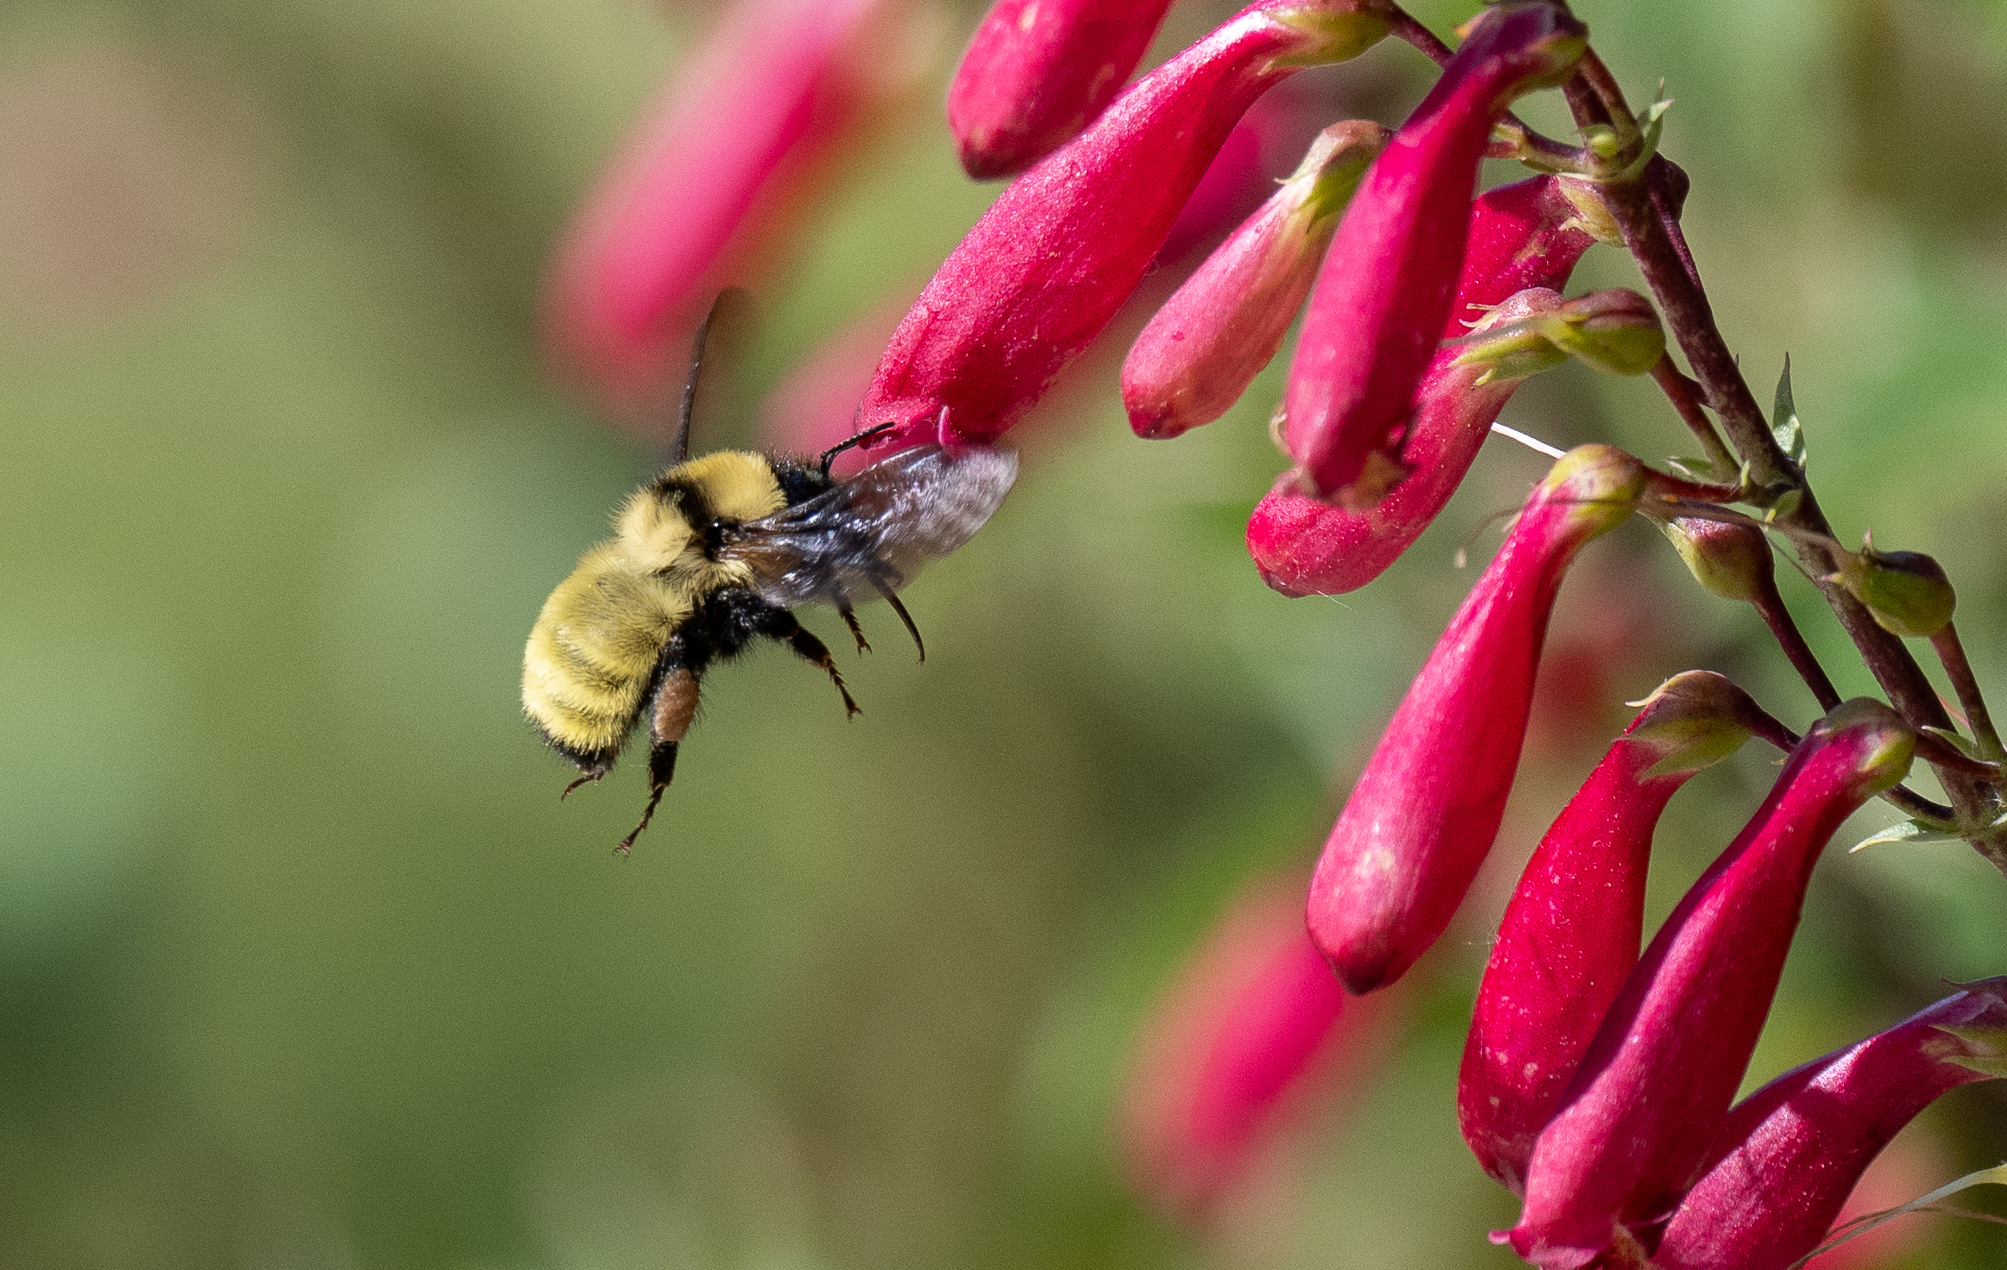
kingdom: Animalia
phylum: Arthropoda
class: Insecta
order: Hymenoptera
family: Apidae
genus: Bombus
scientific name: Bombus fervidus
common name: Yellow bumble bee
